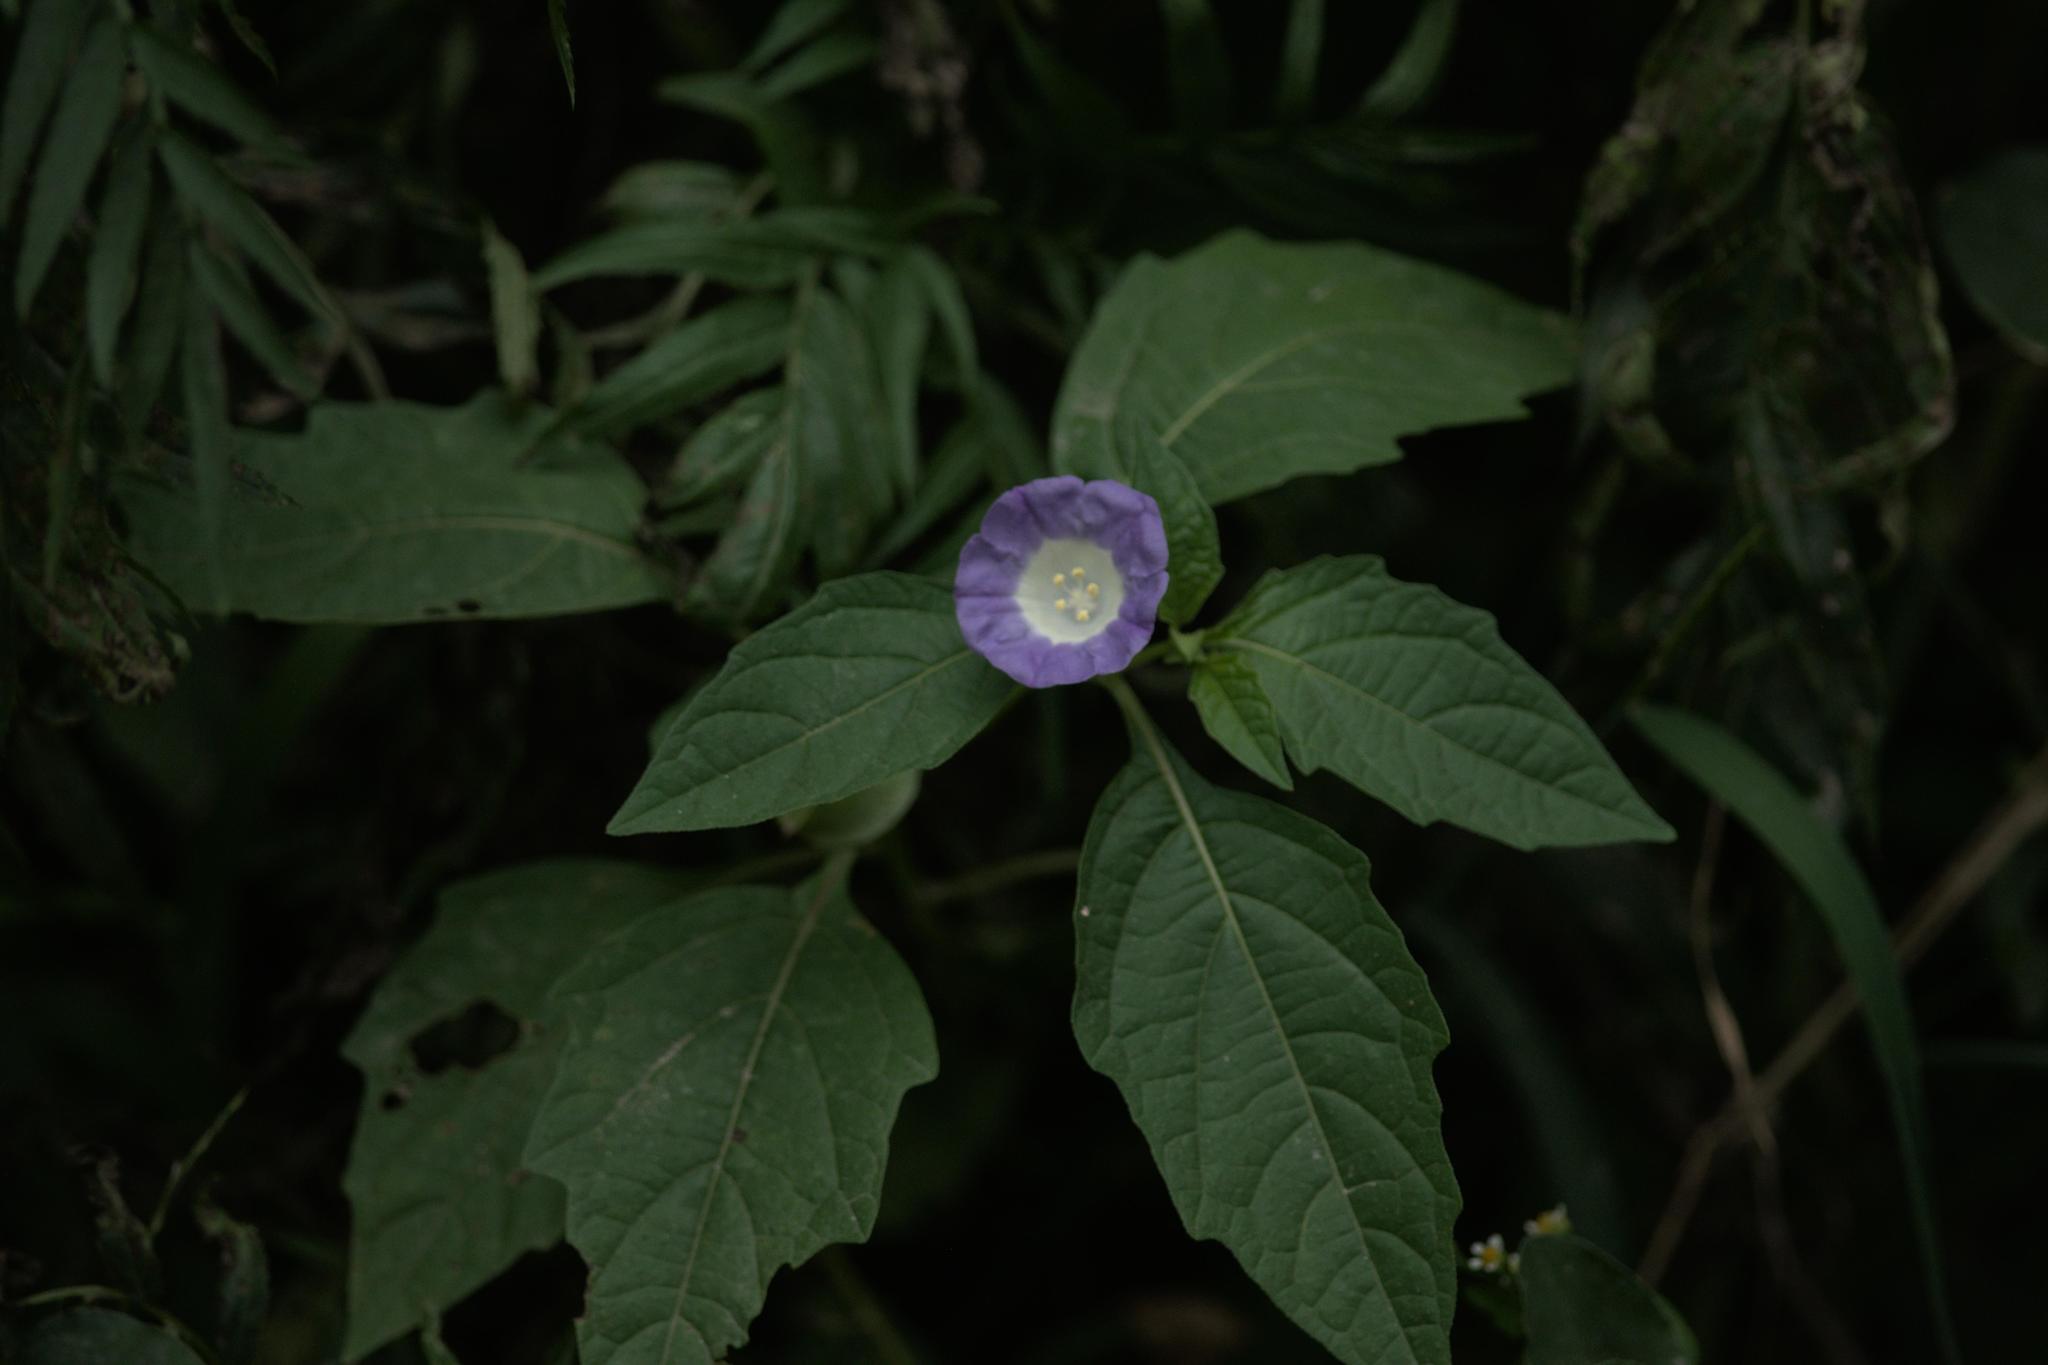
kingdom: Plantae
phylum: Tracheophyta
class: Magnoliopsida
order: Solanales
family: Solanaceae
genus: Nicandra
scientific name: Nicandra physalodes
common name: Apple-of-peru
